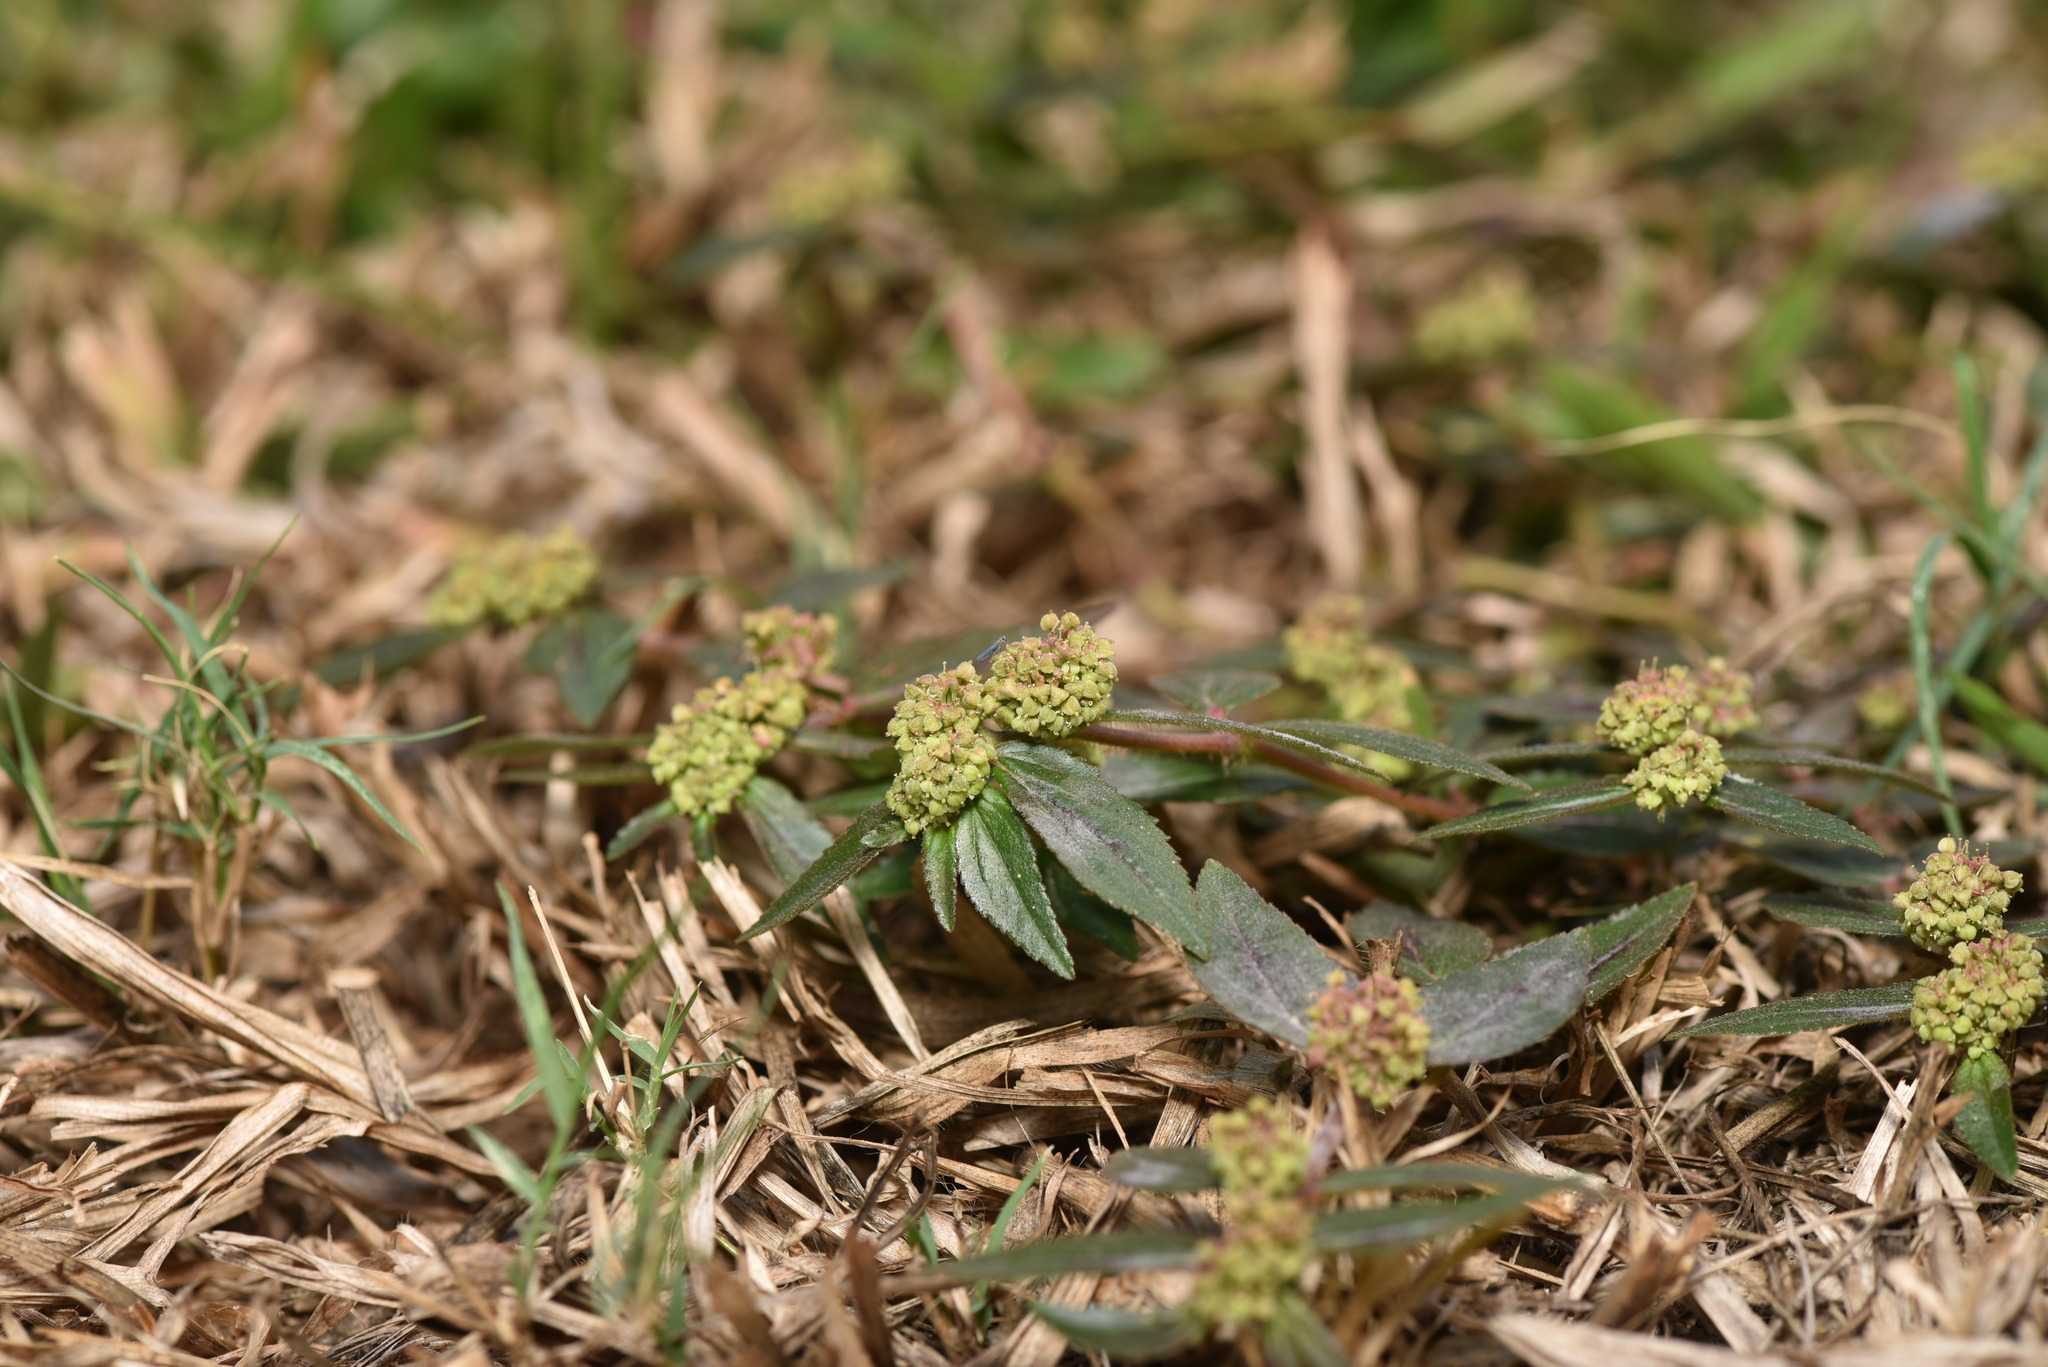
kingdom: Plantae
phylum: Tracheophyta
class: Magnoliopsida
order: Malpighiales
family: Euphorbiaceae
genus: Euphorbia
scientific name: Euphorbia hirta
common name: Pillpod sandmat
